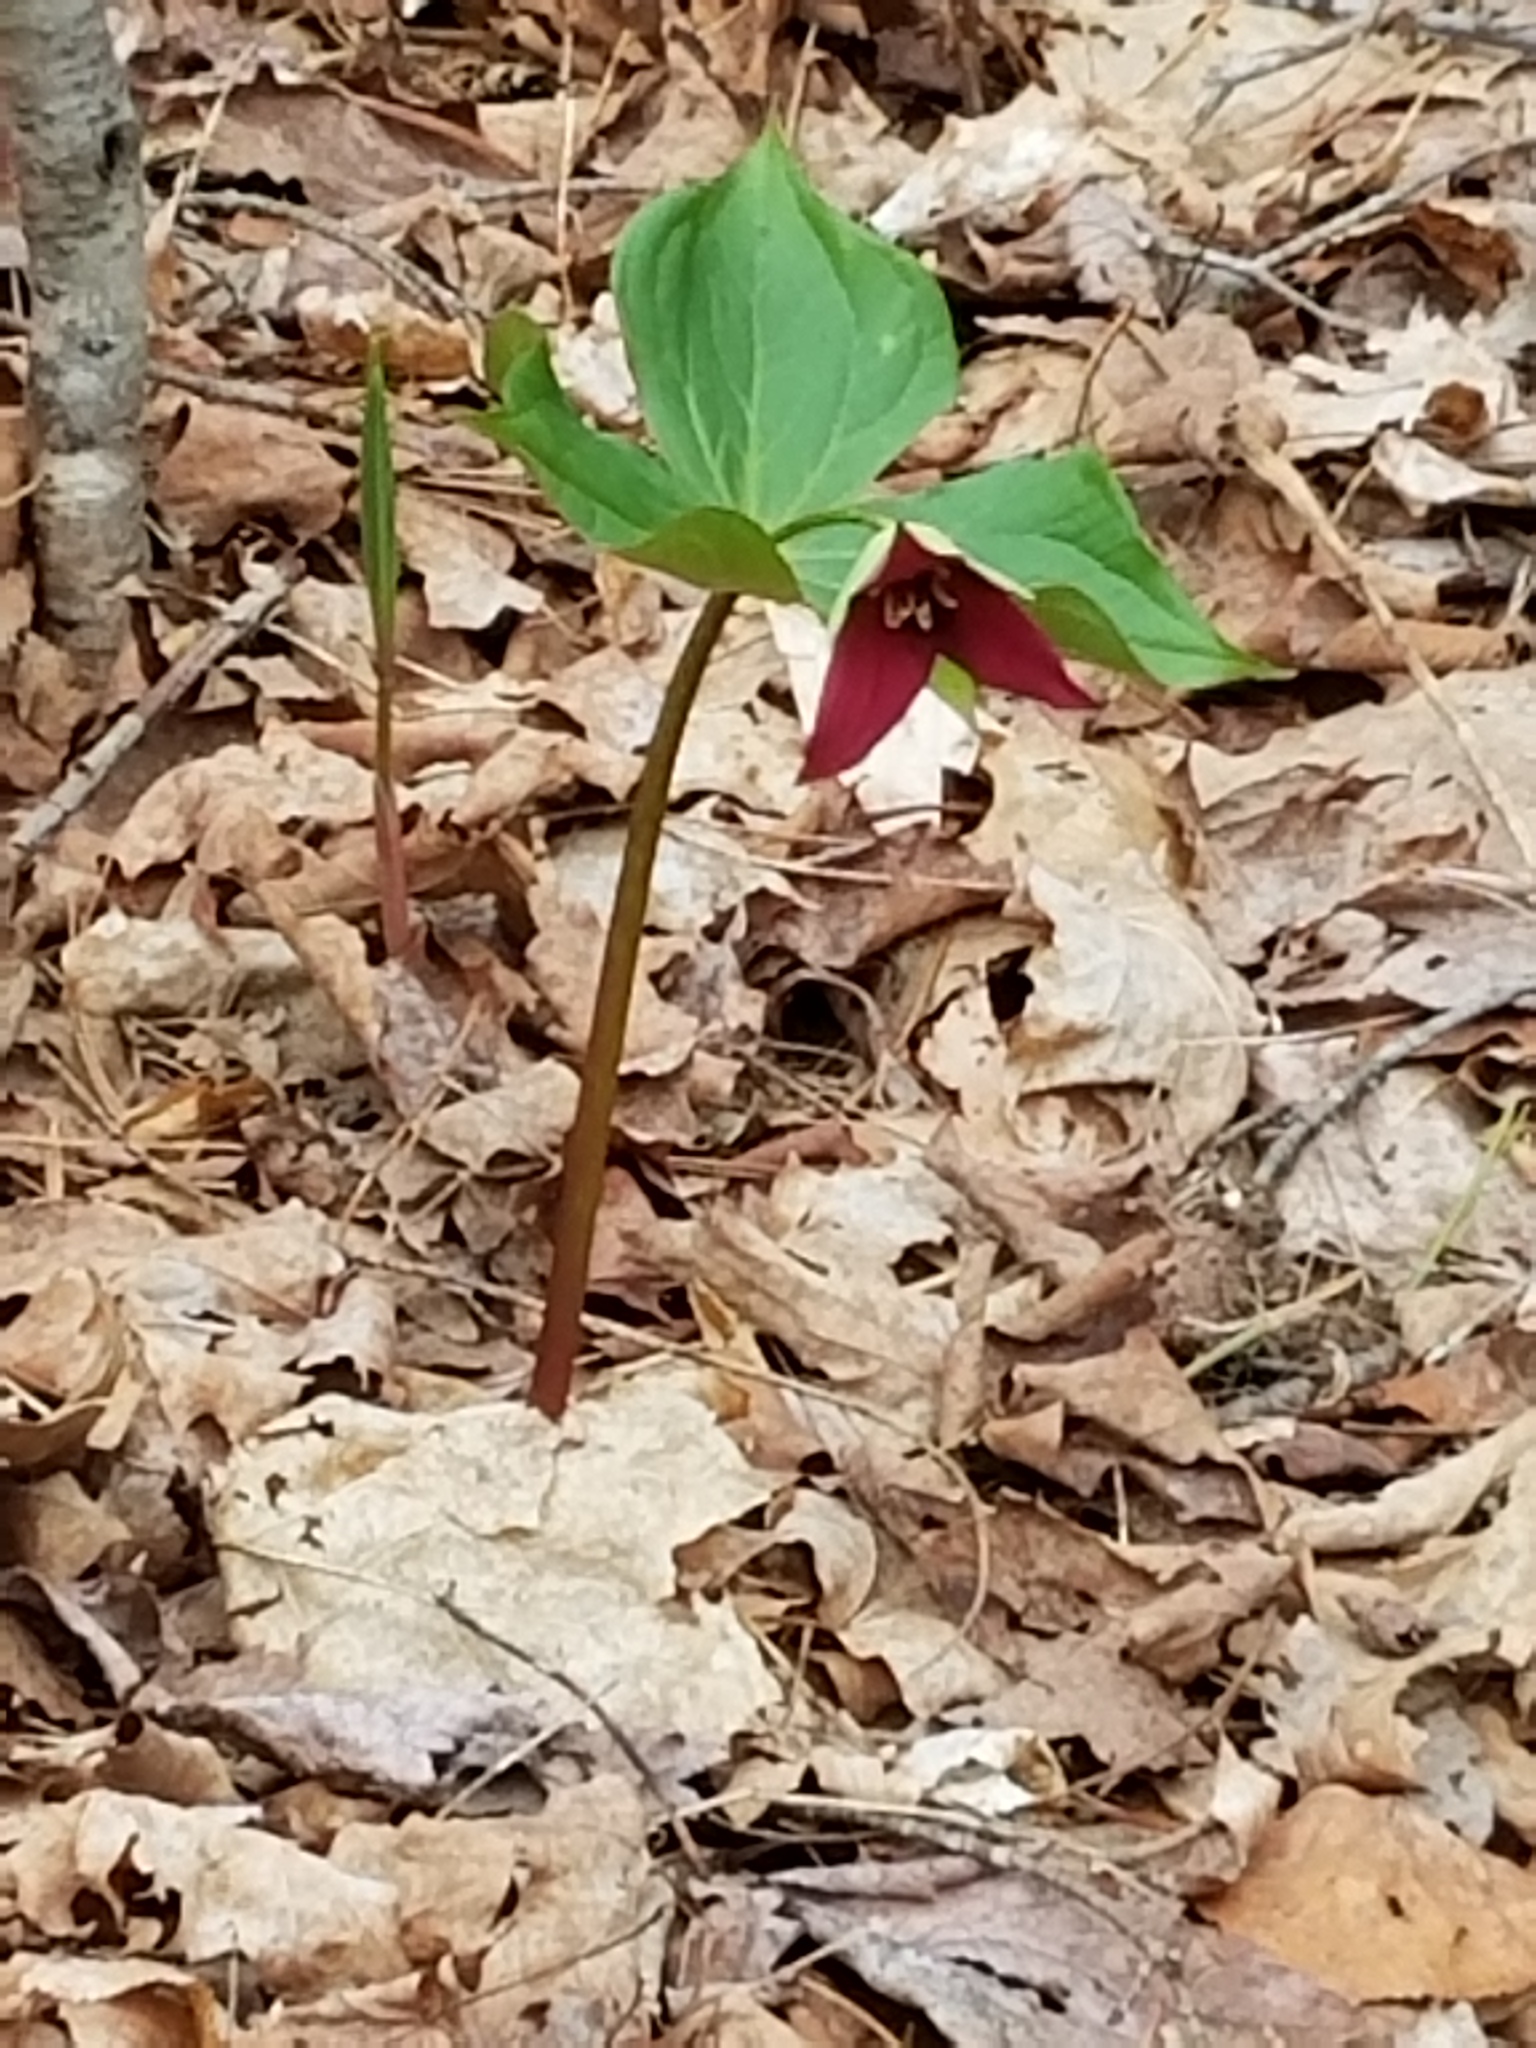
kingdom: Plantae
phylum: Tracheophyta
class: Liliopsida
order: Liliales
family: Melanthiaceae
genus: Trillium
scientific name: Trillium erectum
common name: Purple trillium
